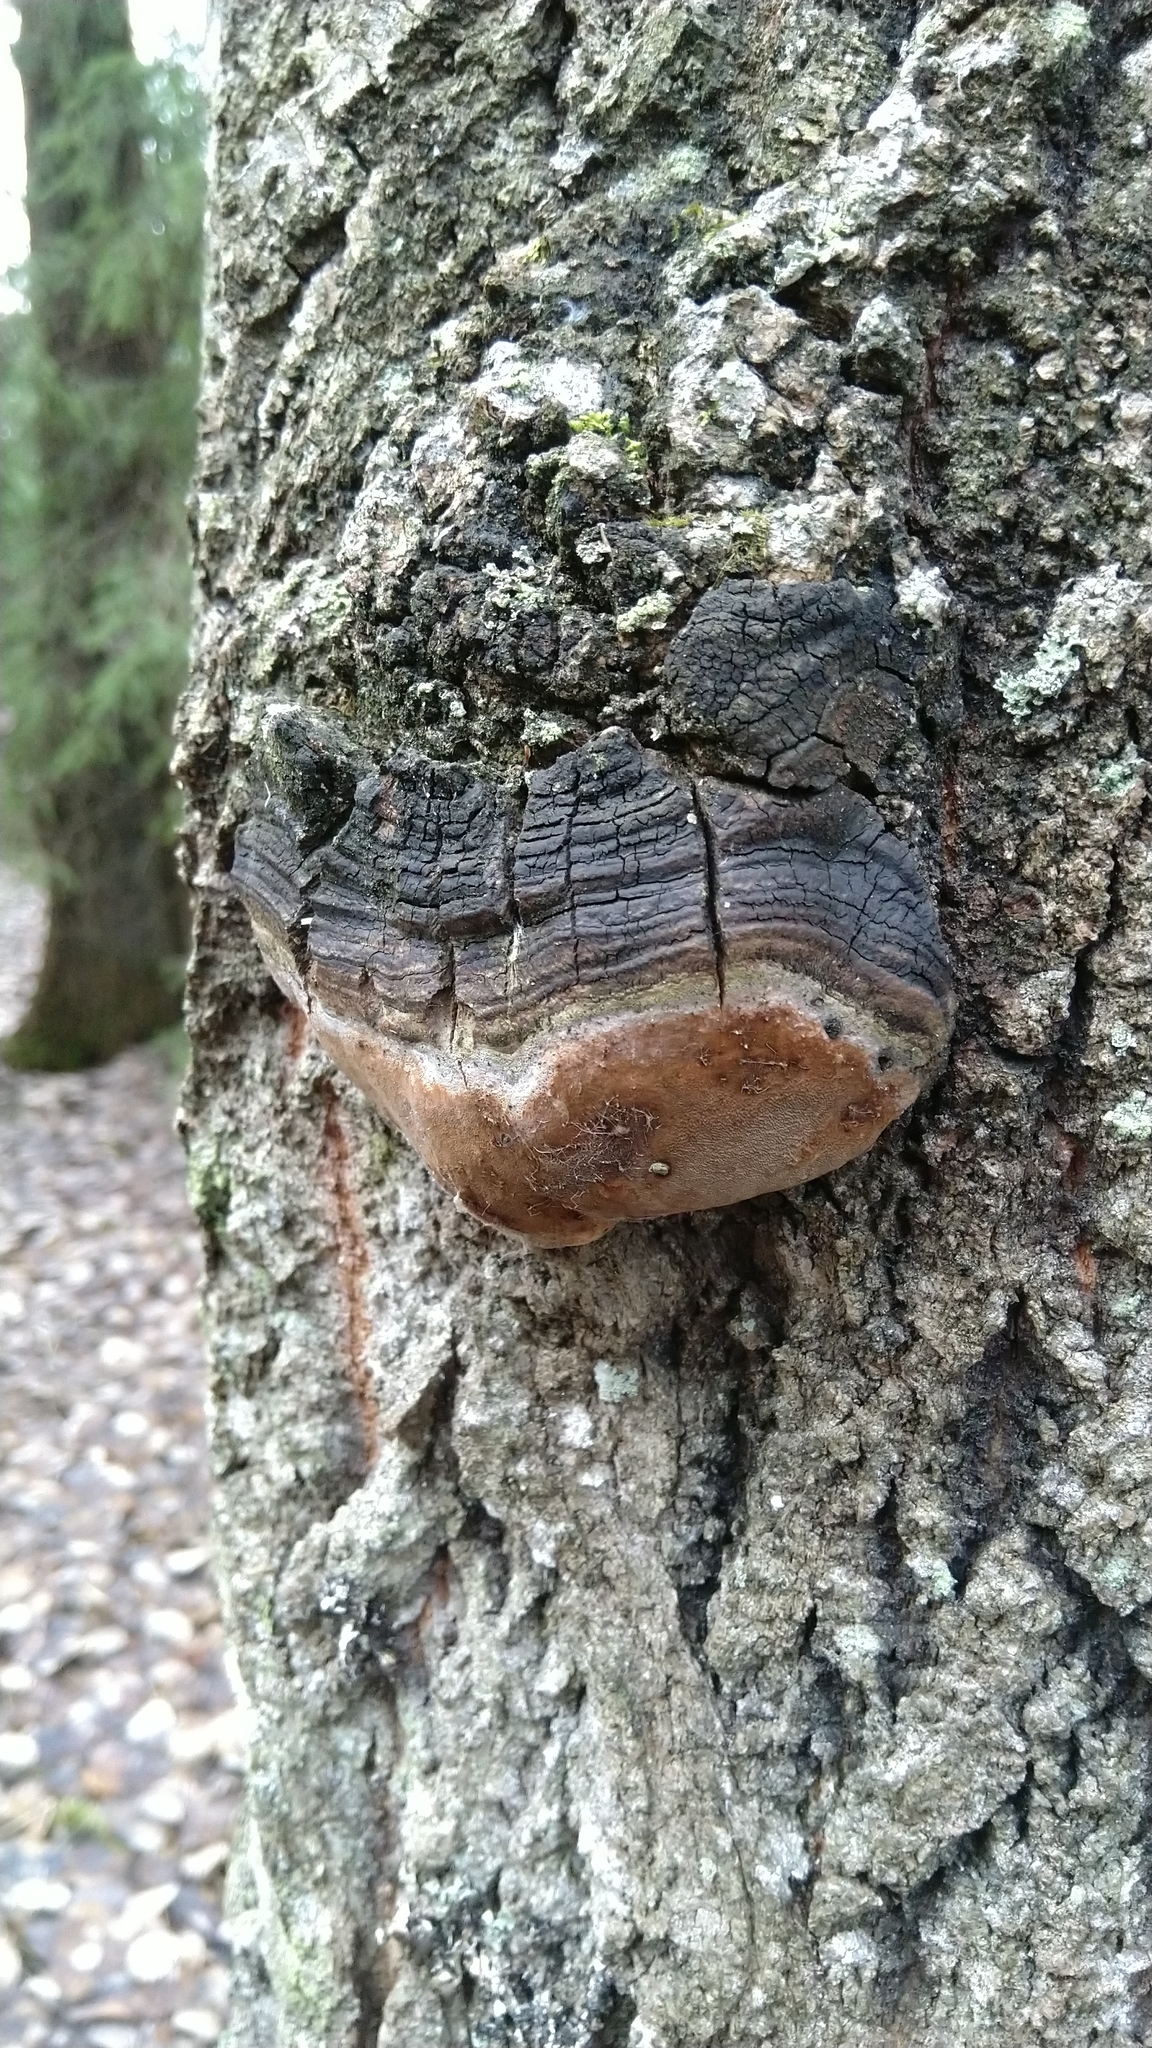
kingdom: Fungi
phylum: Basidiomycota
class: Agaricomycetes
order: Hymenochaetales
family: Hymenochaetaceae
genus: Phellinus
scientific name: Phellinus tremulae
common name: Aspen bracket
